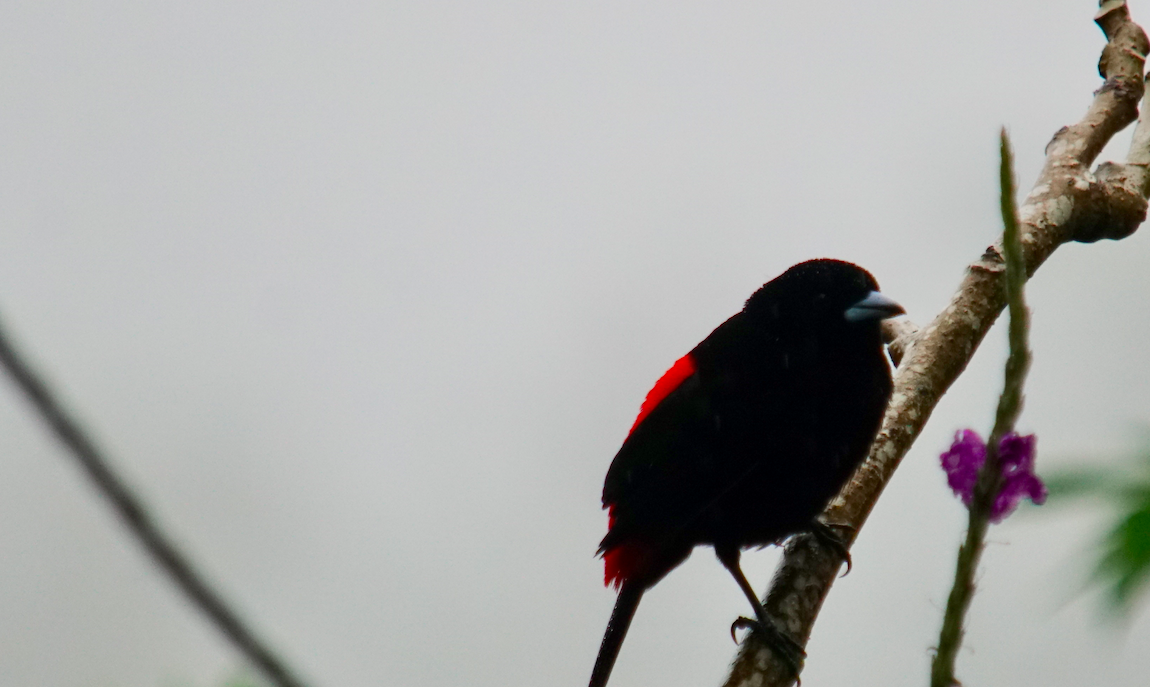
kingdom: Animalia
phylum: Chordata
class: Aves
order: Passeriformes
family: Thraupidae
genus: Ramphocelus
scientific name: Ramphocelus passerinii
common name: Passerini's tanager
